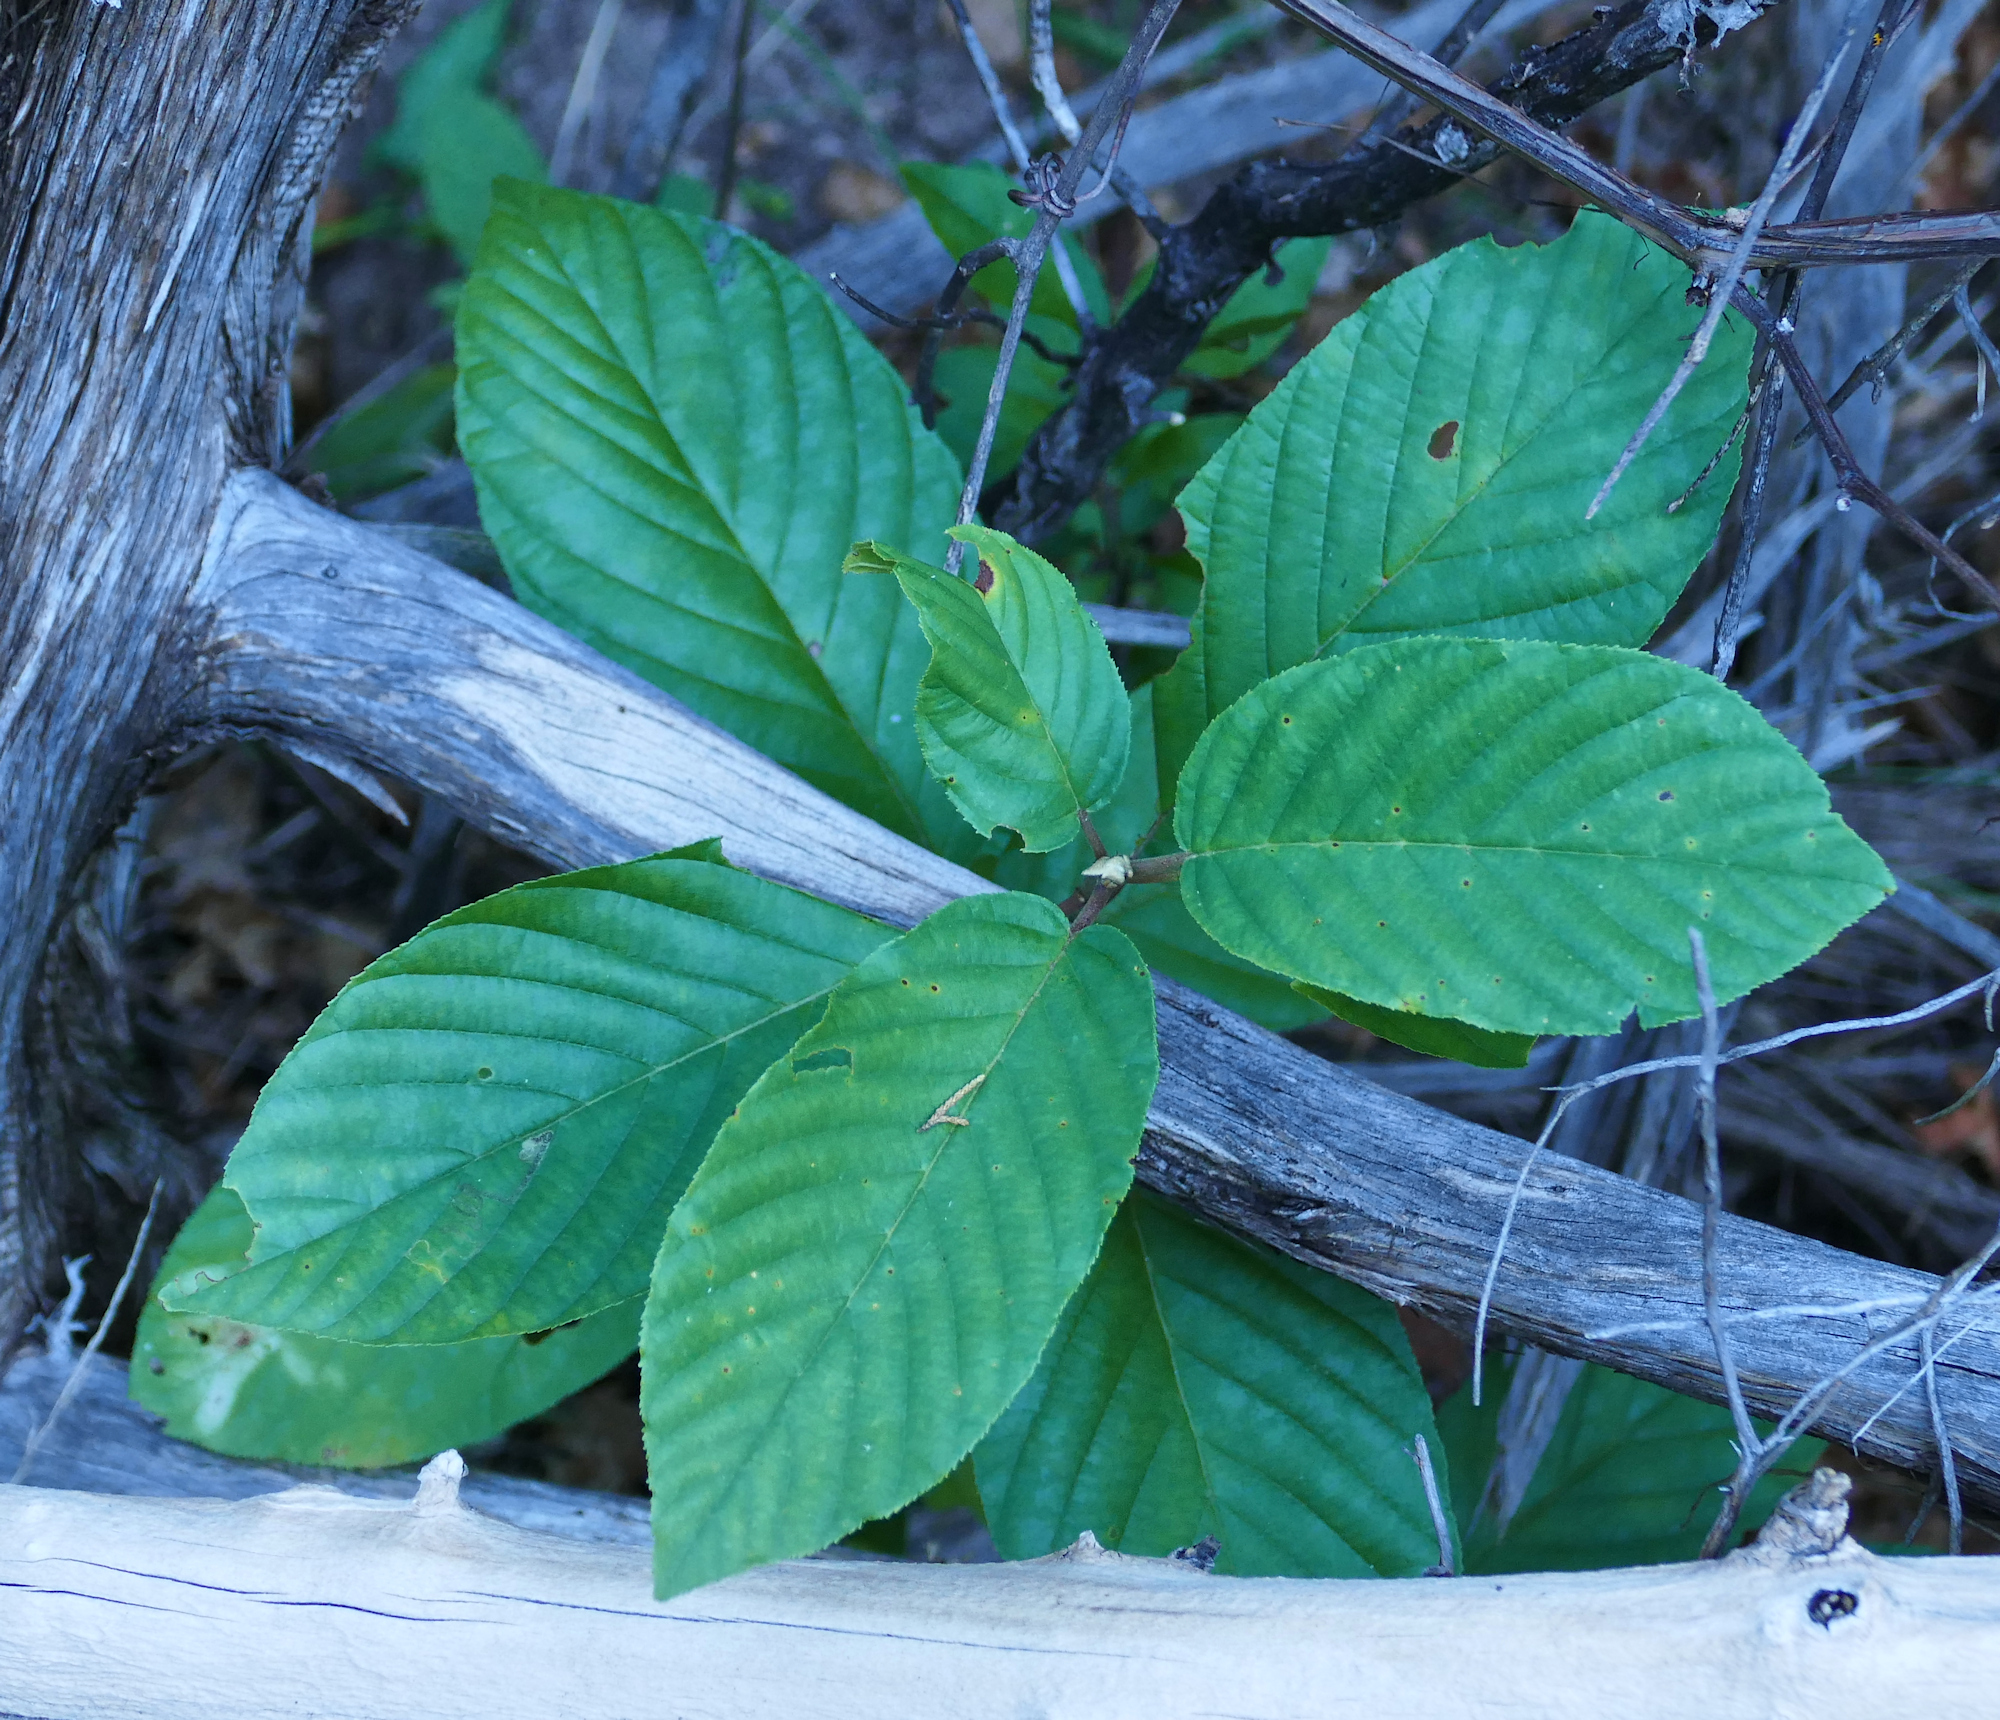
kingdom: Plantae
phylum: Tracheophyta
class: Magnoliopsida
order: Rosales
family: Rhamnaceae
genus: Frangula
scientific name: Frangula betulifolia
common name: Birch-leaf buckthorn
